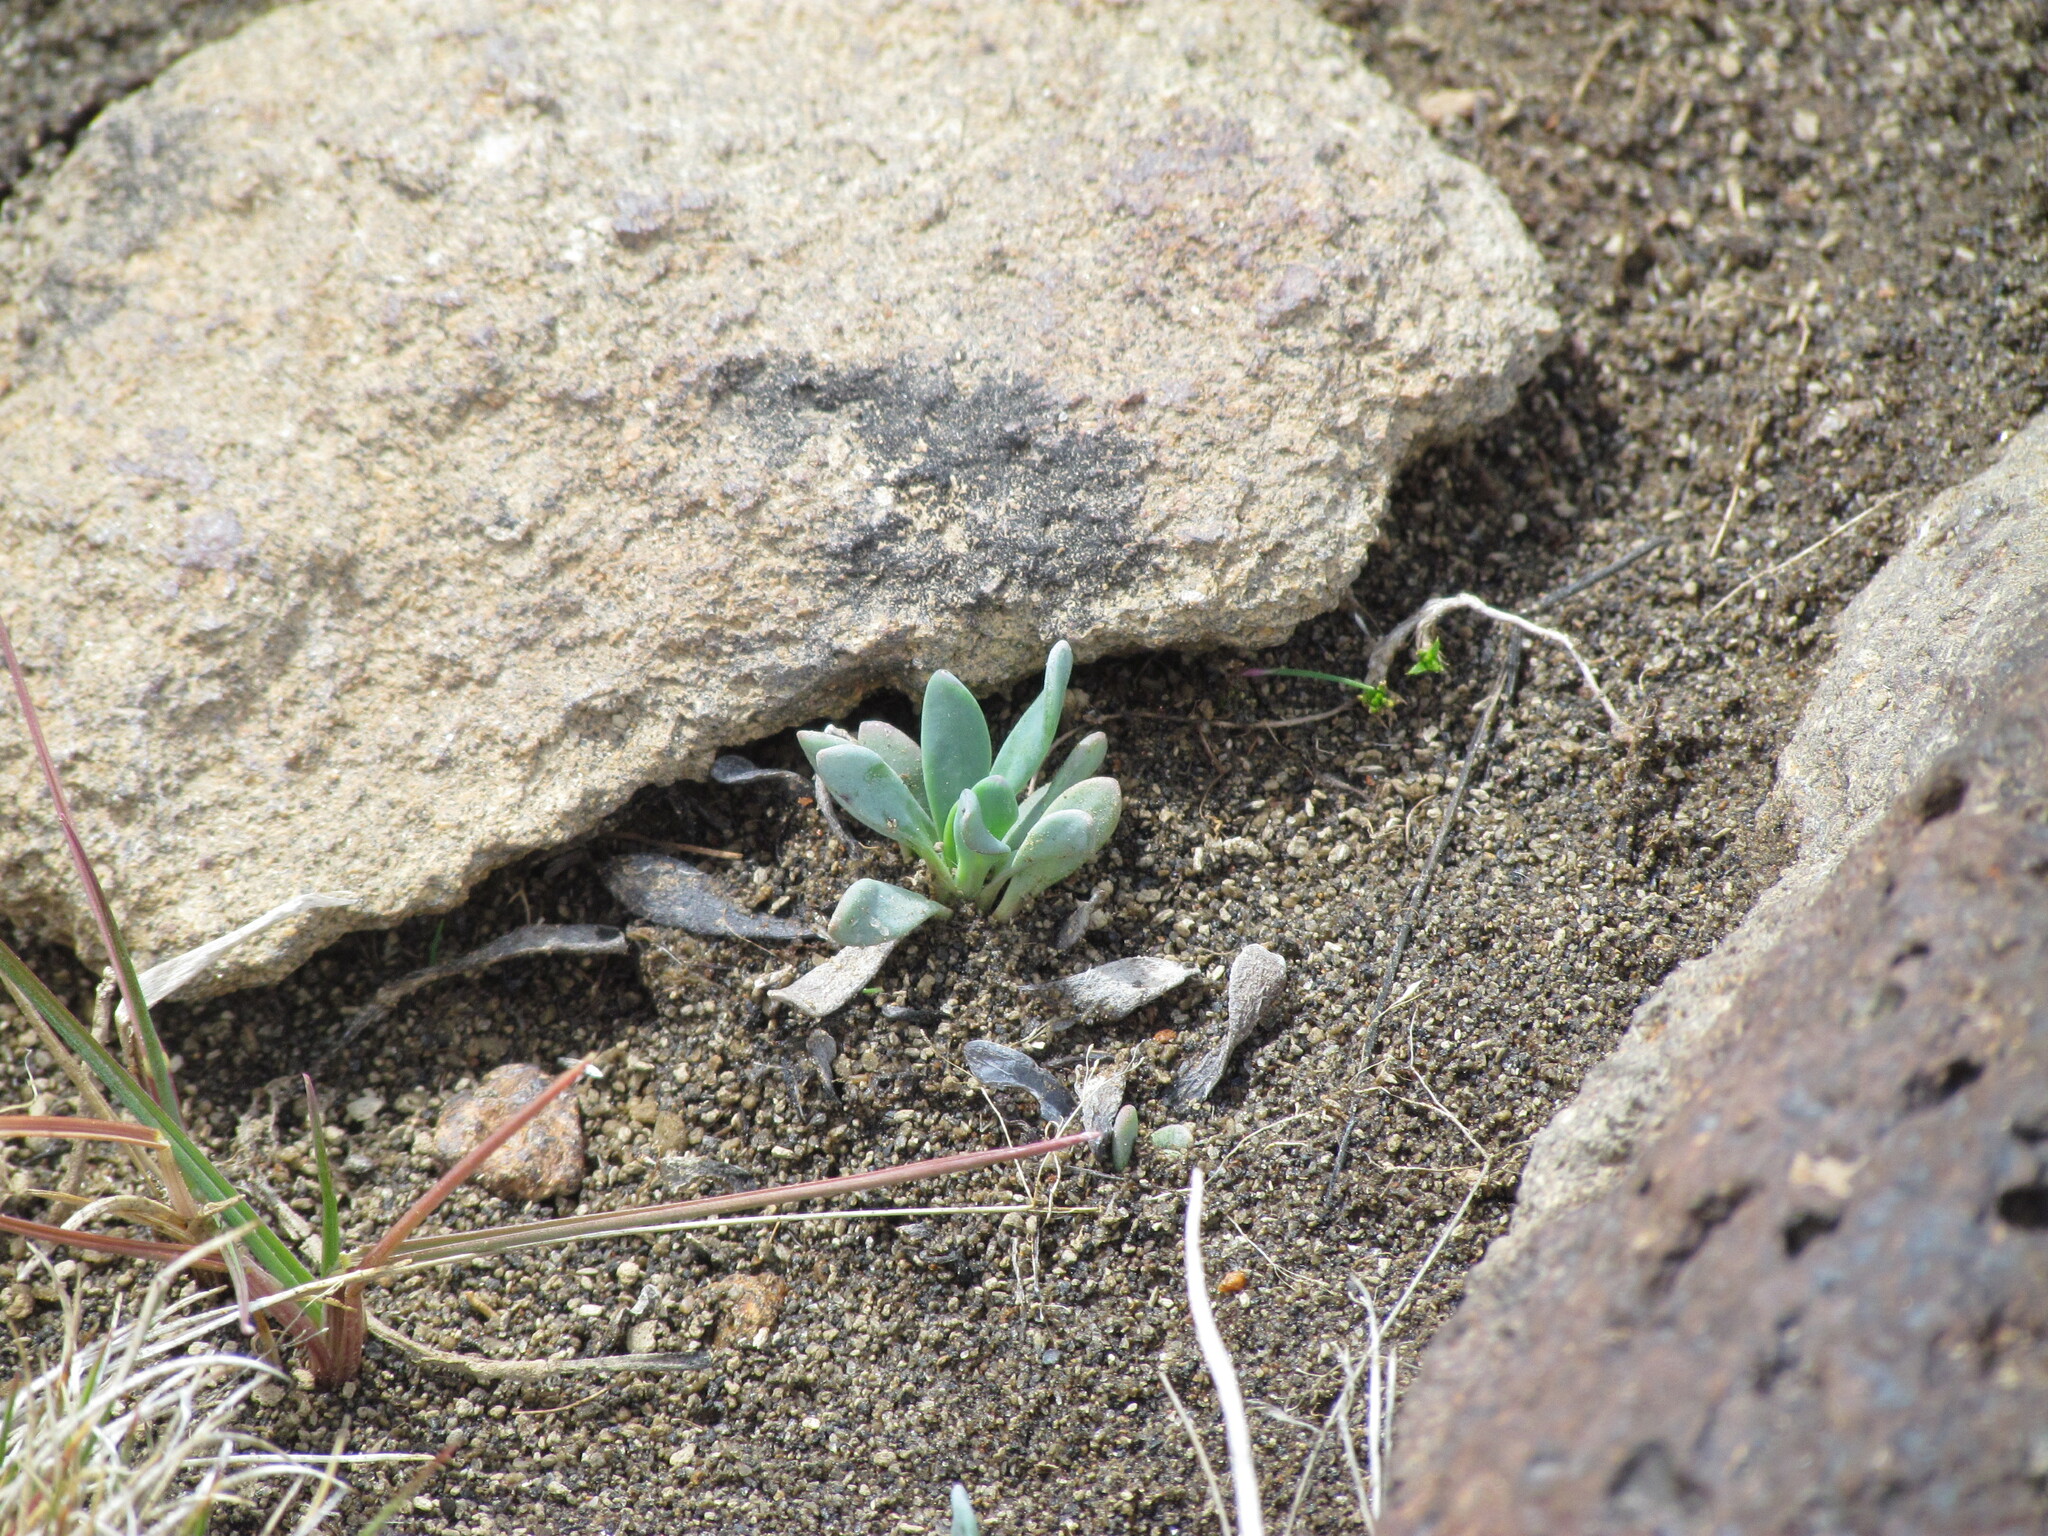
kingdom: Plantae
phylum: Tracheophyta
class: Magnoliopsida
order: Asterales
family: Asteraceae
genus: Senecio
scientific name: Senecio martinensis
